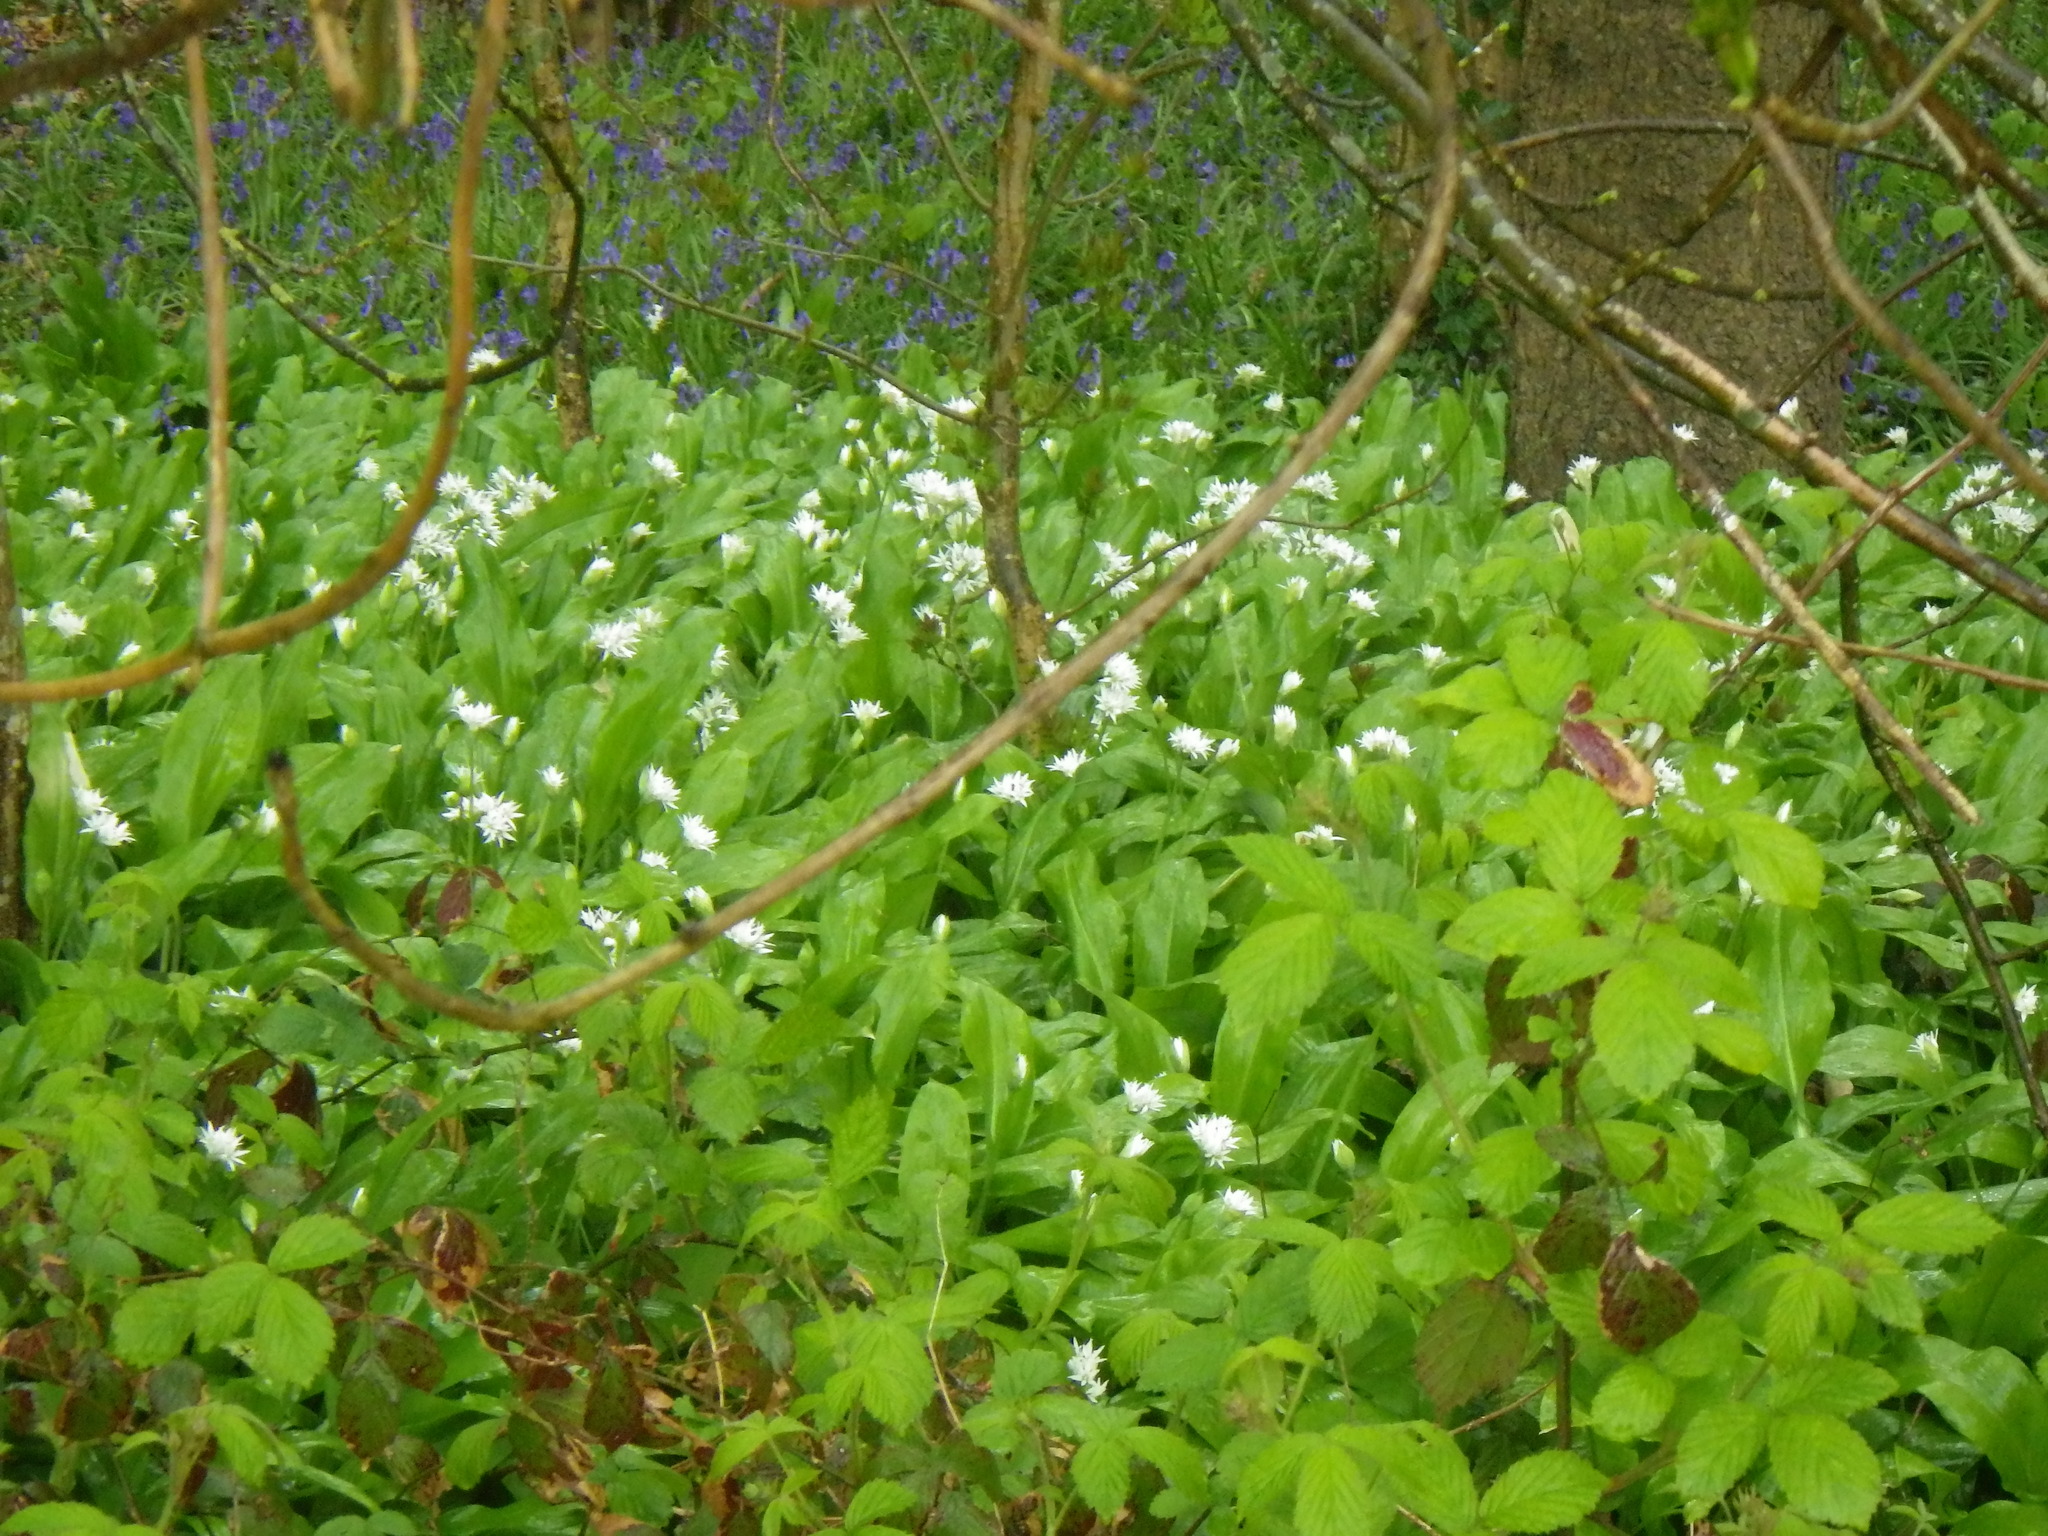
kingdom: Plantae
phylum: Tracheophyta
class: Liliopsida
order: Asparagales
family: Amaryllidaceae
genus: Allium
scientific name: Allium ursinum
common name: Ramsons
